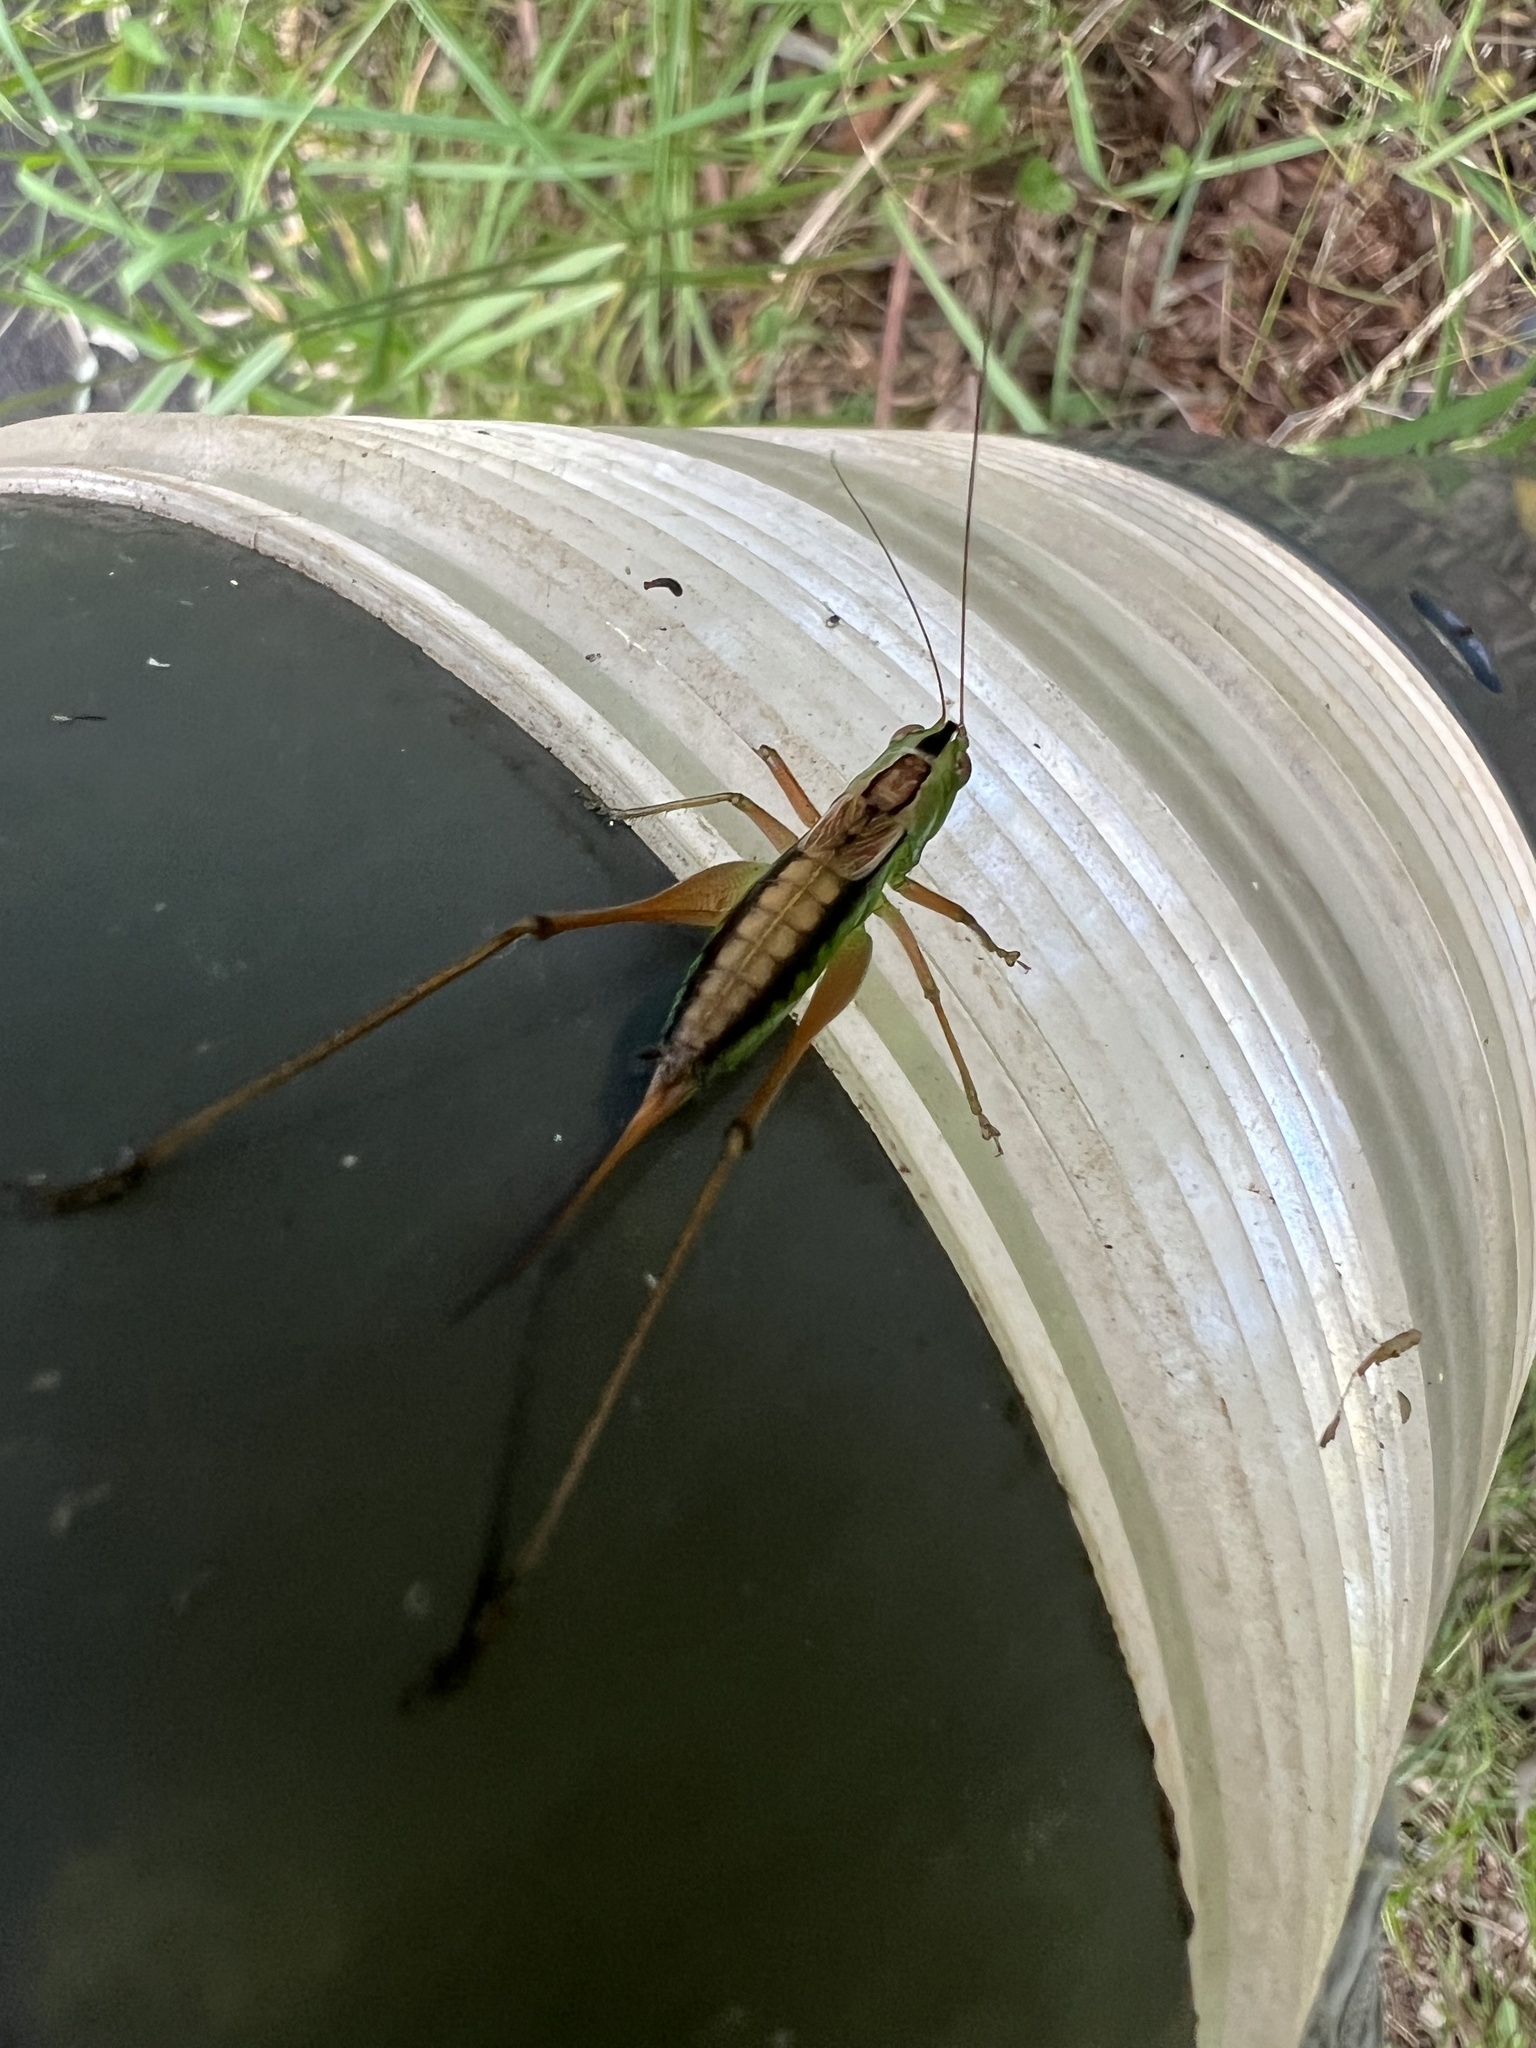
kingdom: Animalia
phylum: Arthropoda
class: Insecta
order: Orthoptera
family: Tettigoniidae
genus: Conocephalus
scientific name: Conocephalus semivittatus
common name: Blackish meadow katydid
